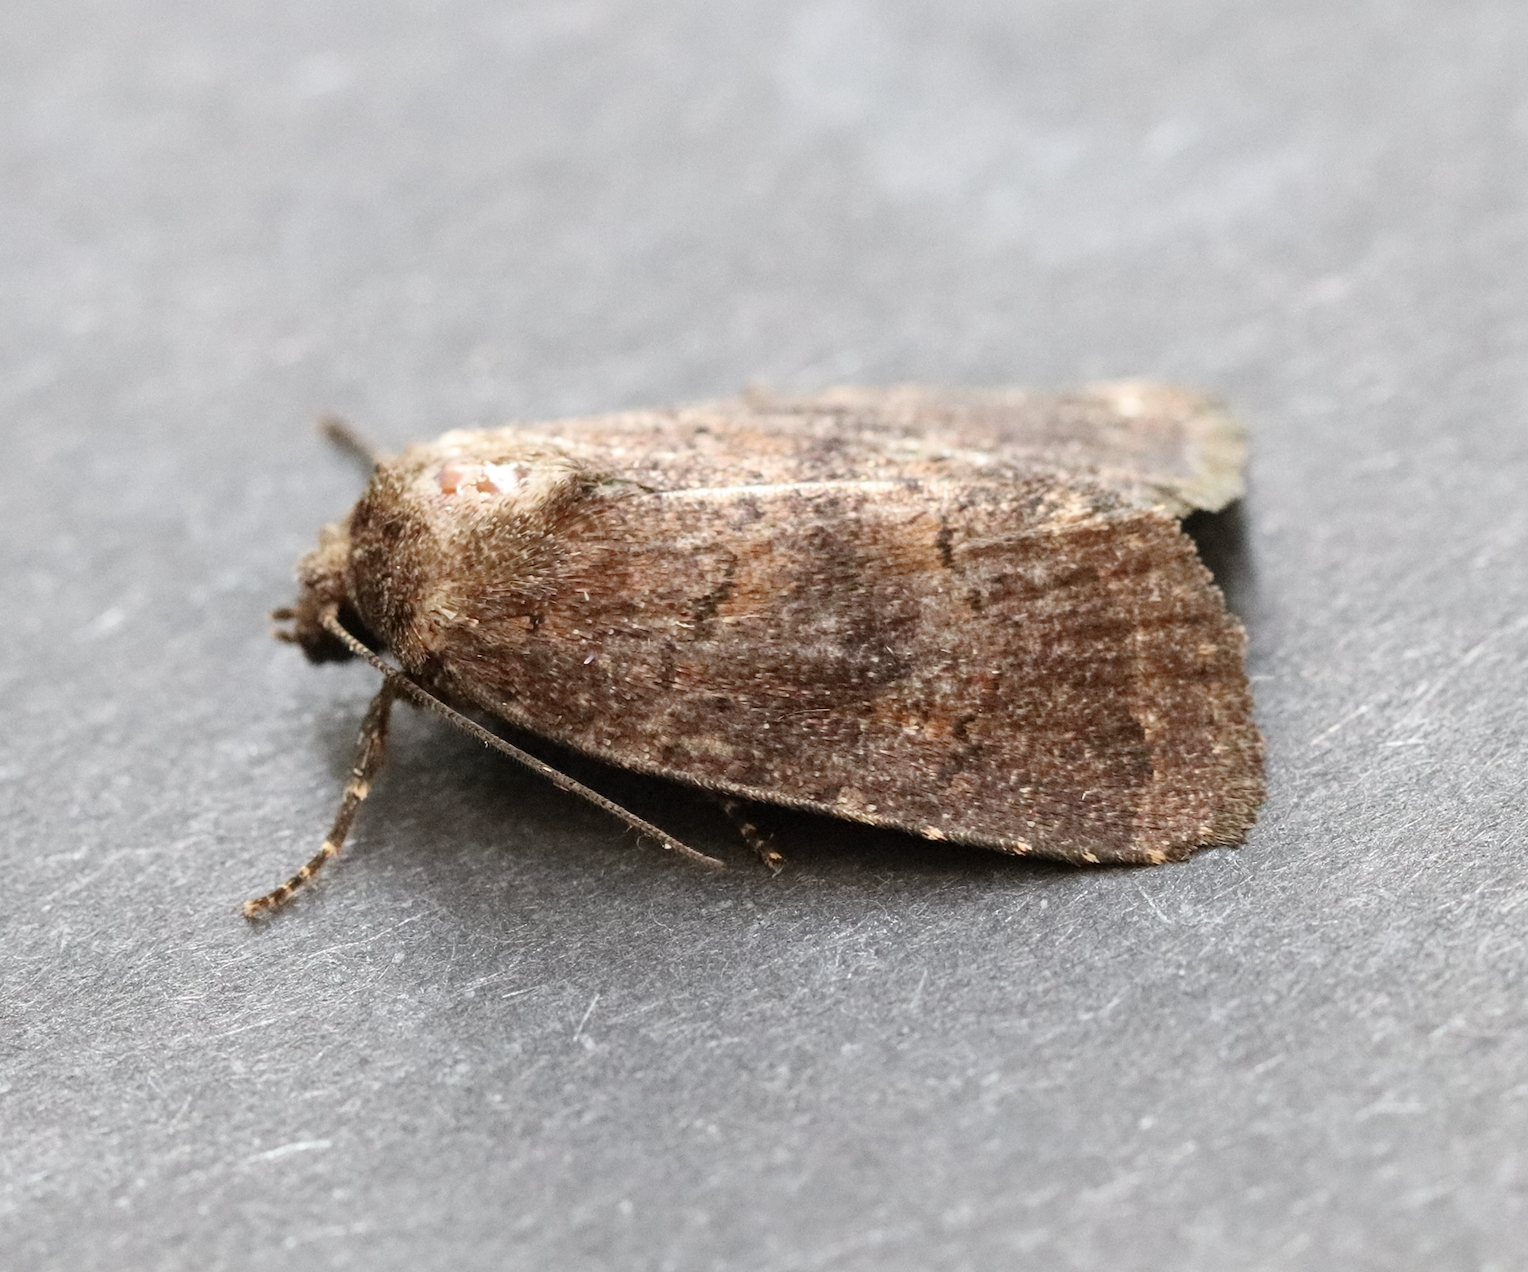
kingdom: Animalia
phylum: Arthropoda
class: Insecta
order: Lepidoptera
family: Noctuidae
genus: Charanyca
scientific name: Charanyca ferruginea
